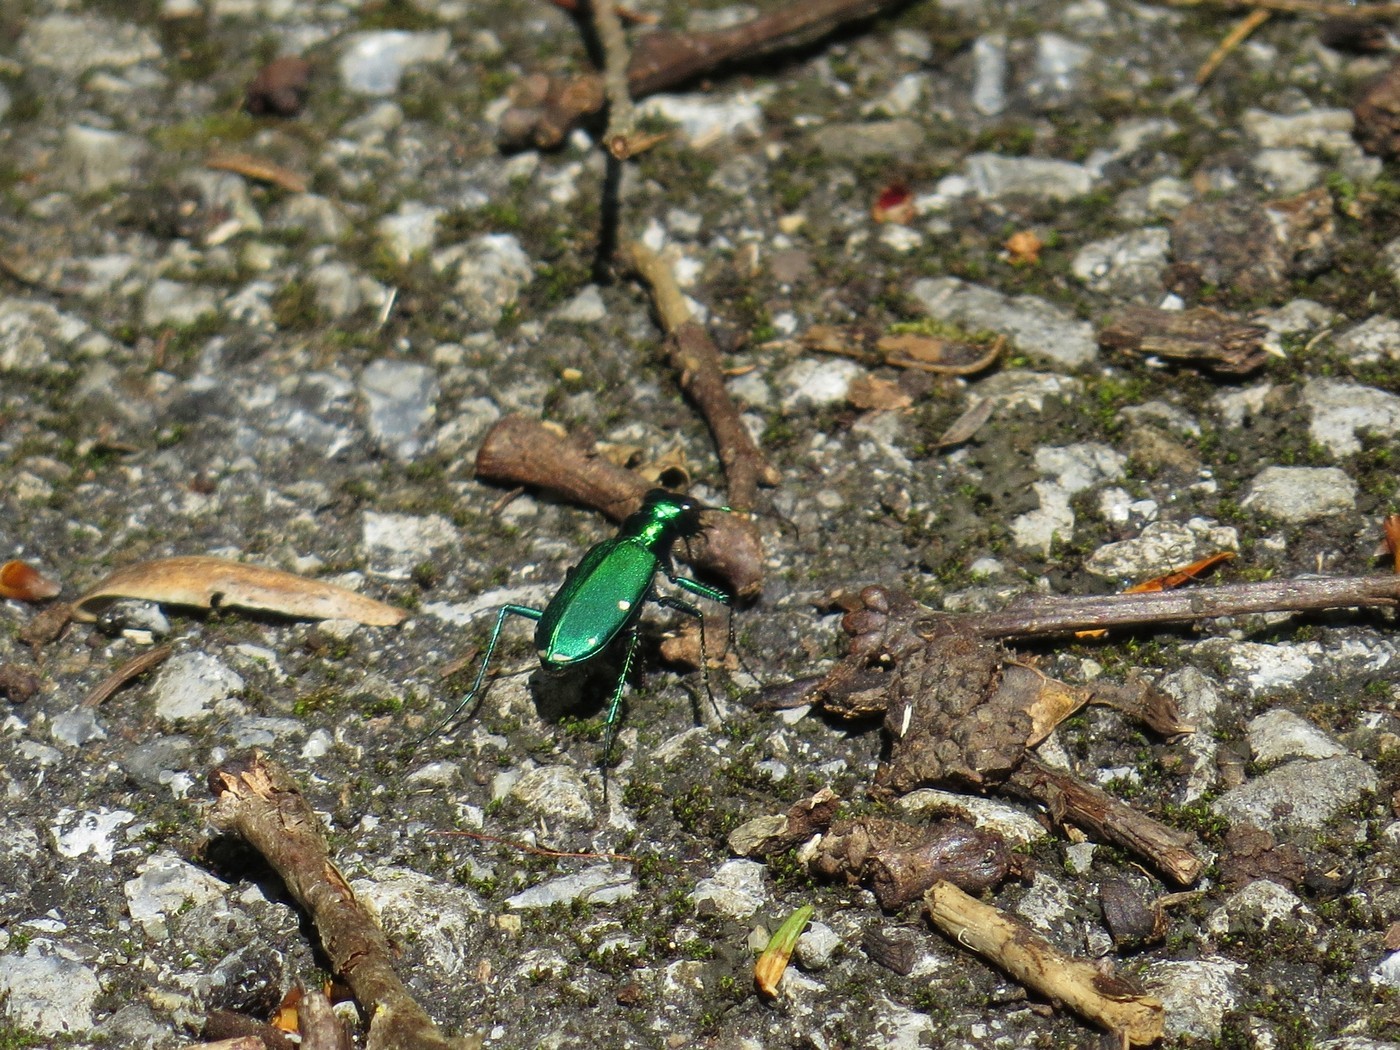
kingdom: Animalia
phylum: Arthropoda
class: Insecta
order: Coleoptera
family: Carabidae
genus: Cicindela
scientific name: Cicindela sexguttata
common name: Six-spotted tiger beetle
